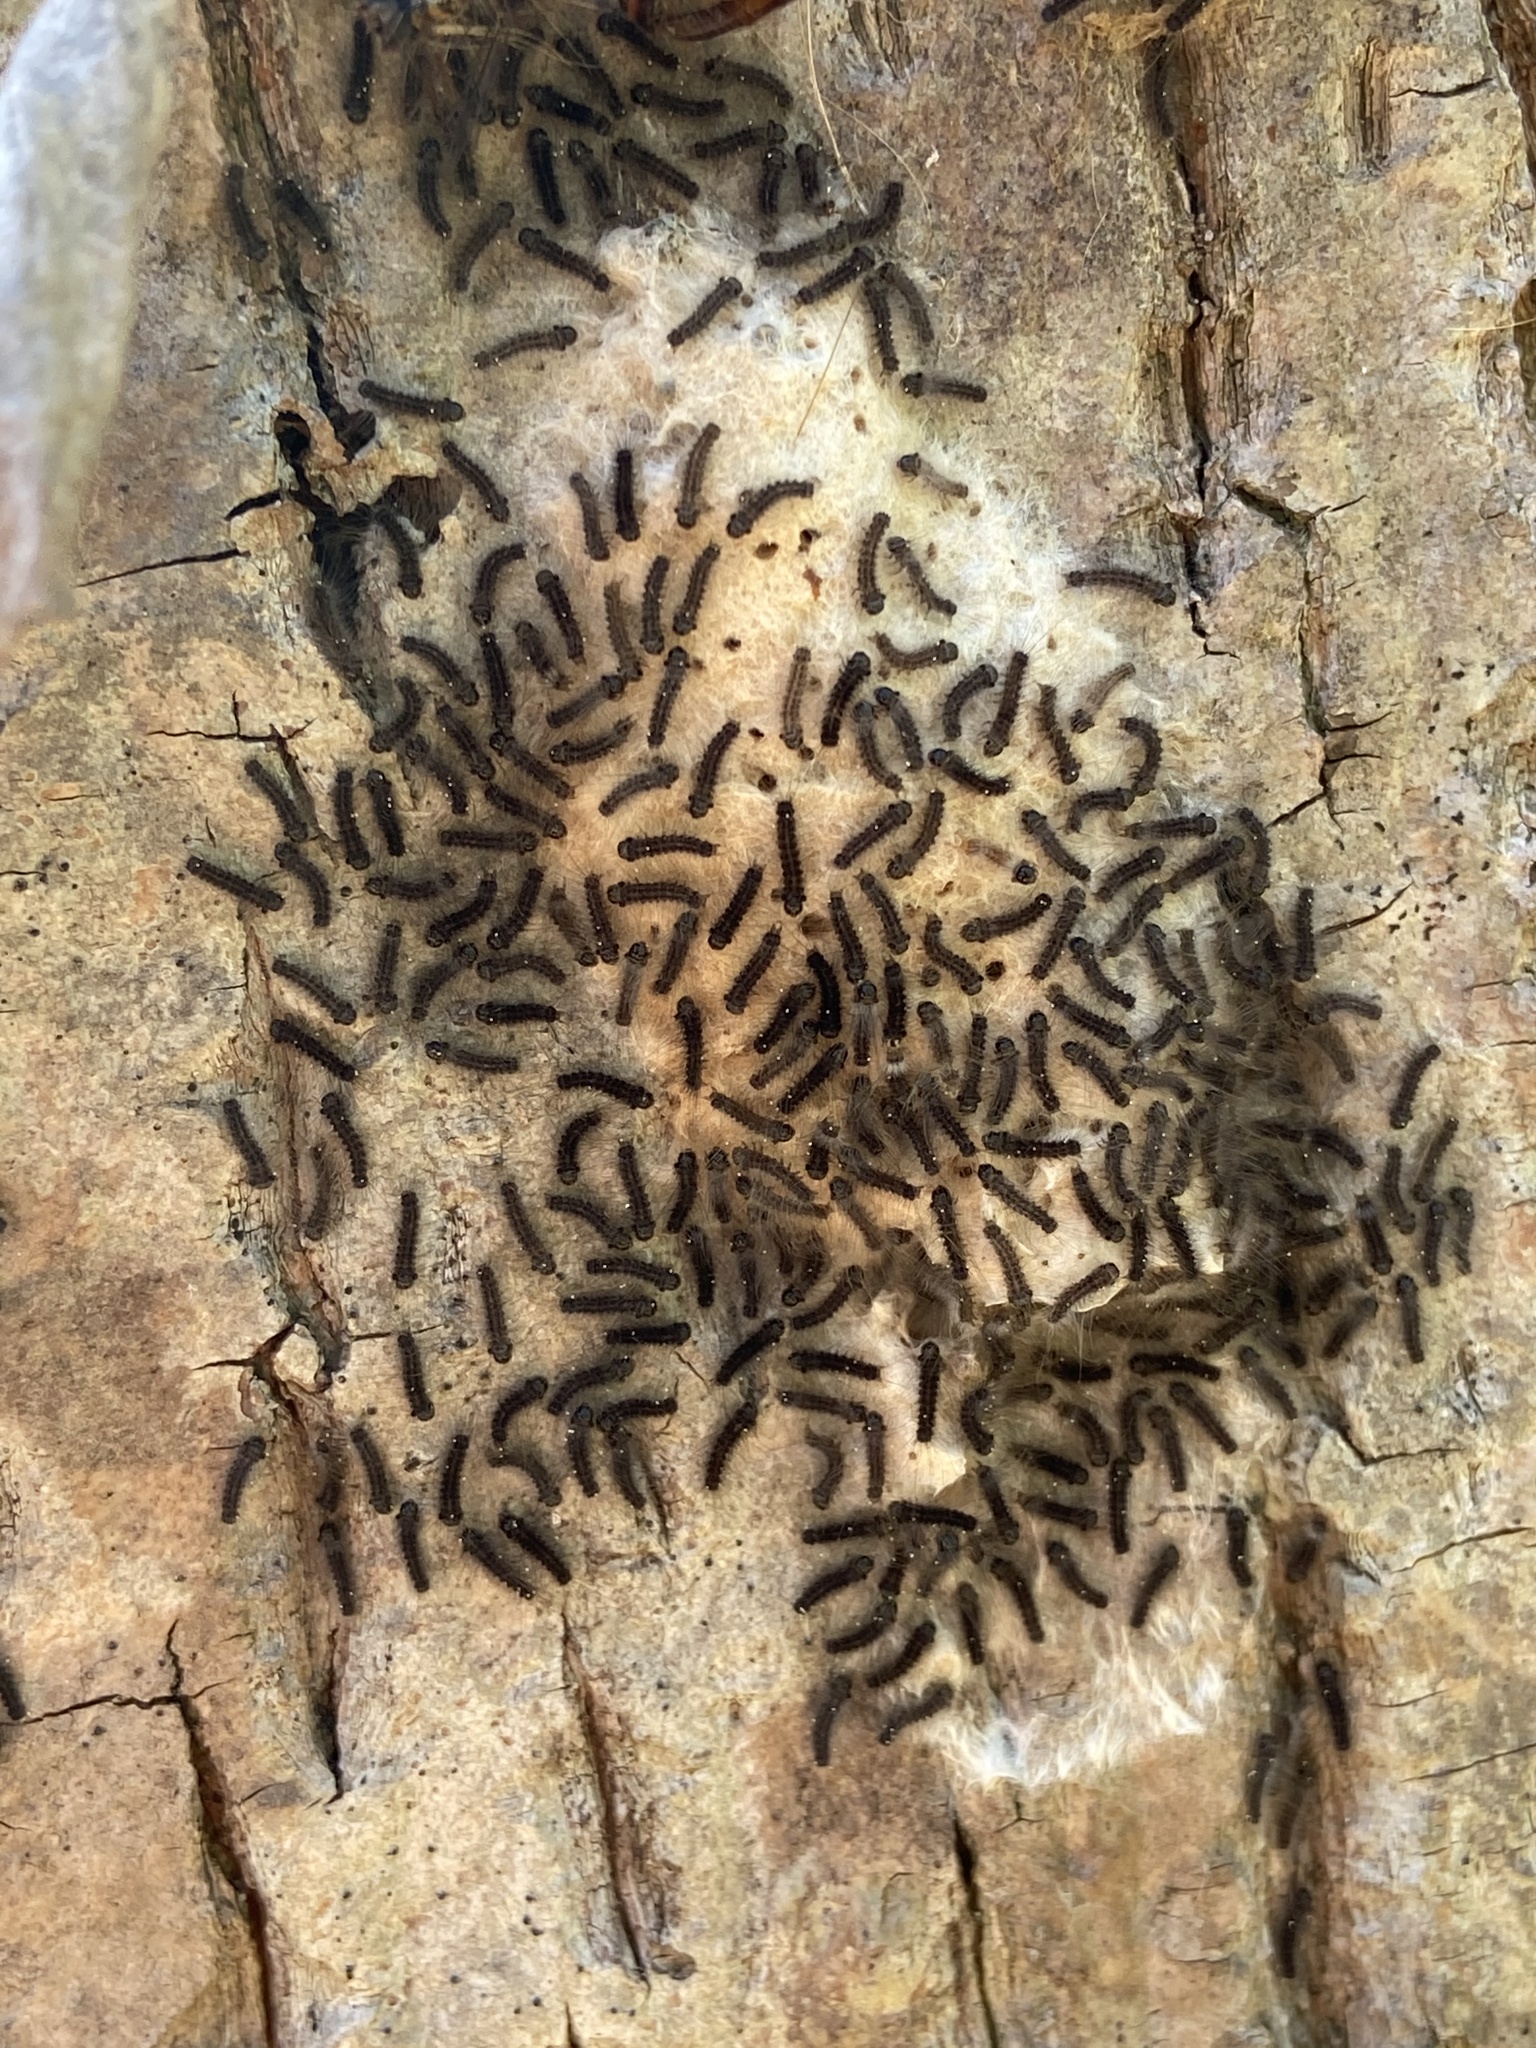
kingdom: Animalia
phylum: Arthropoda
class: Insecta
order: Lepidoptera
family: Erebidae
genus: Lymantria
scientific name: Lymantria dispar
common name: Gypsy moth
